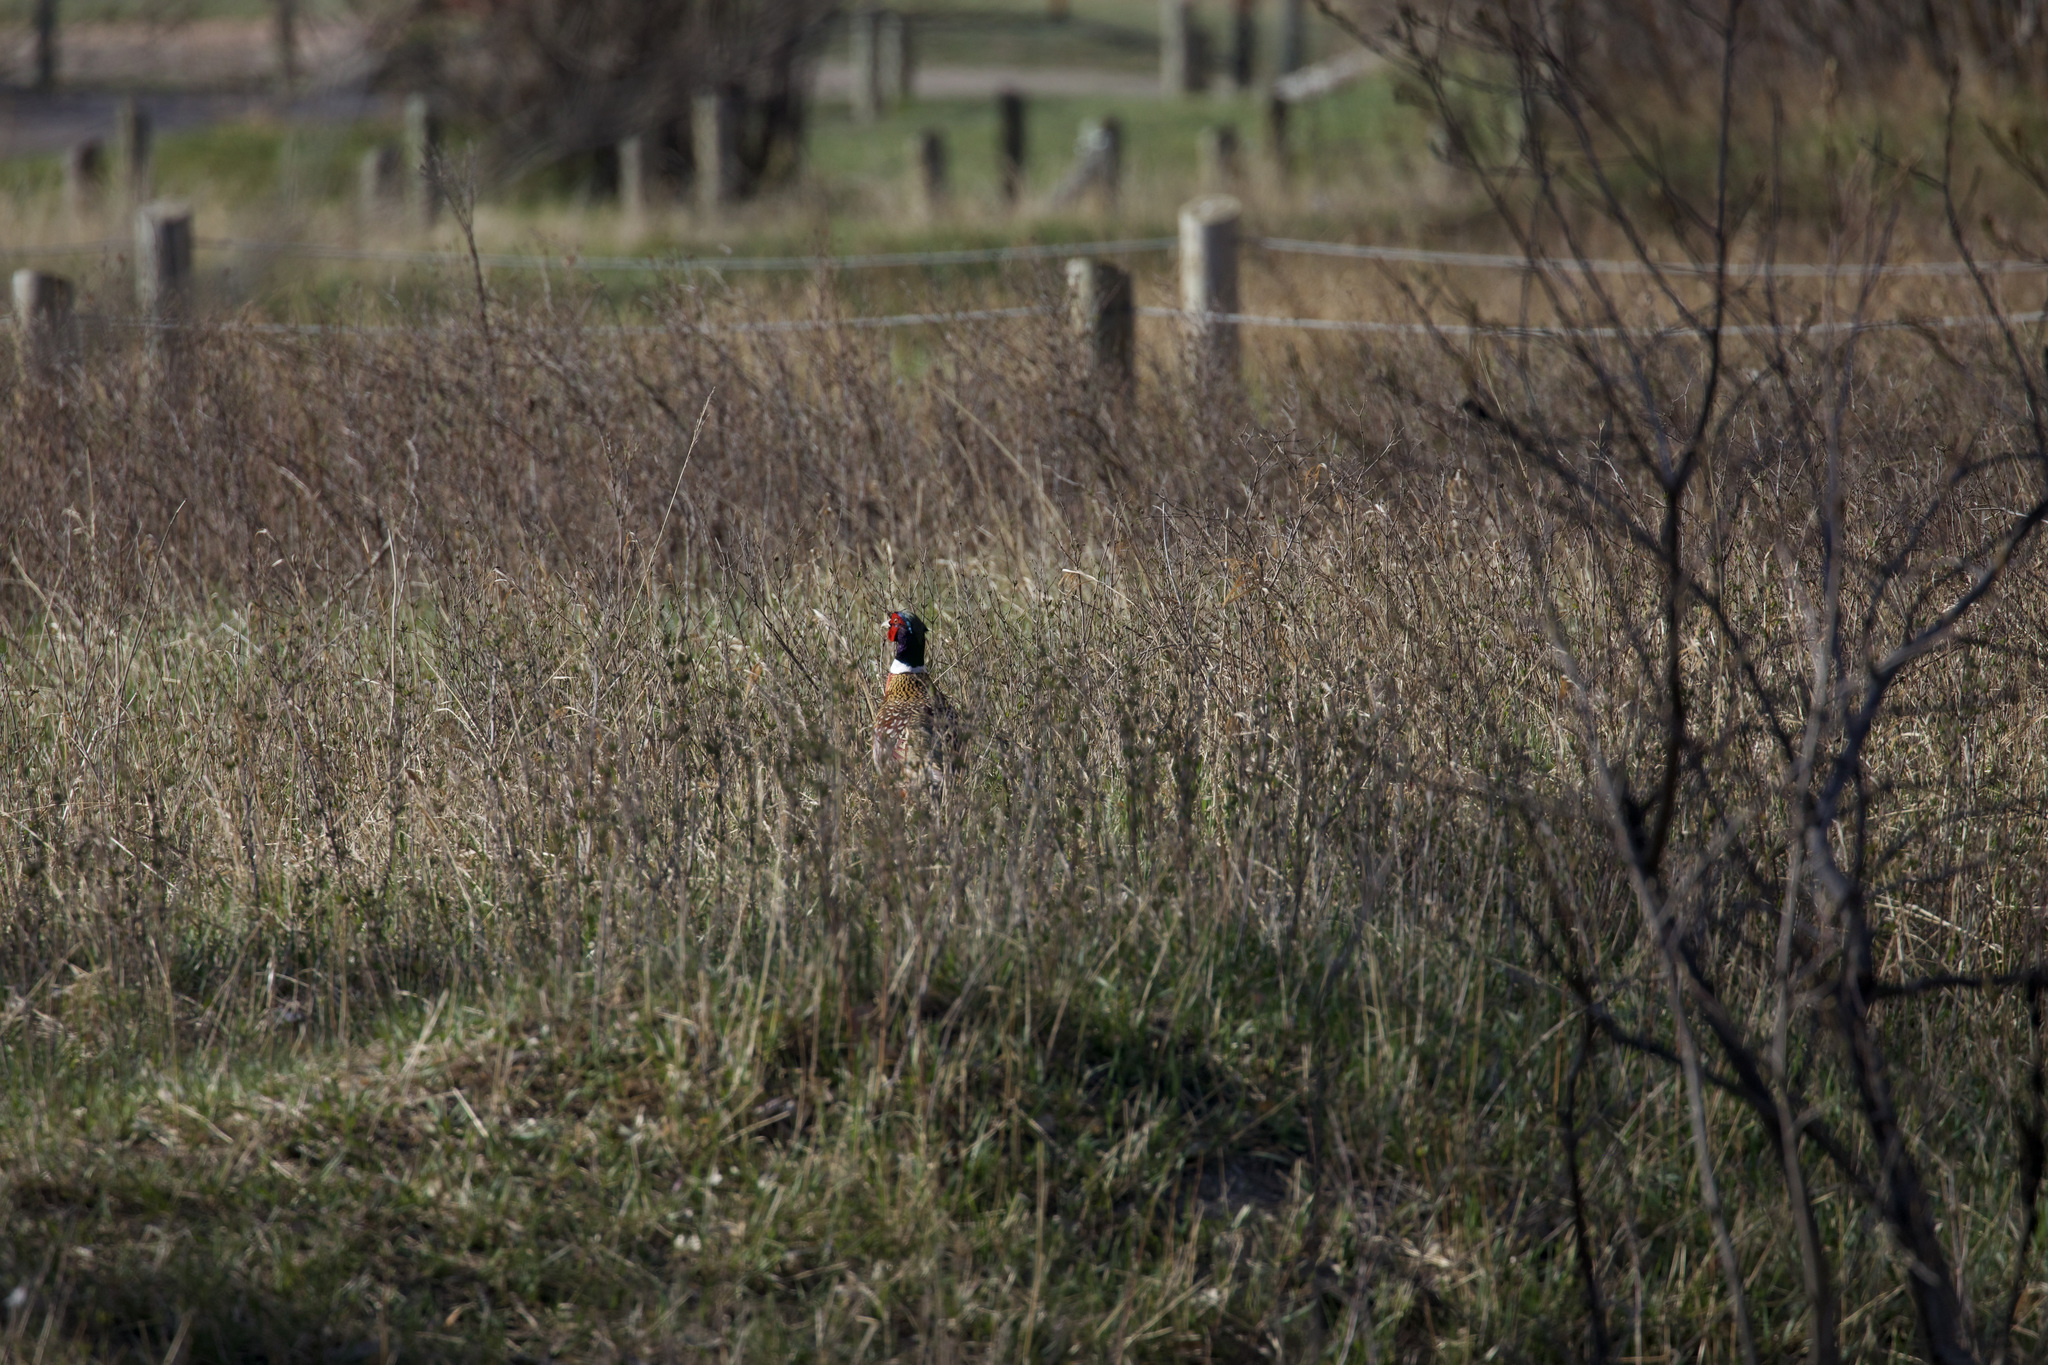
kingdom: Animalia
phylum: Chordata
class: Aves
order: Galliformes
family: Phasianidae
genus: Phasianus
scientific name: Phasianus colchicus
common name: Common pheasant
